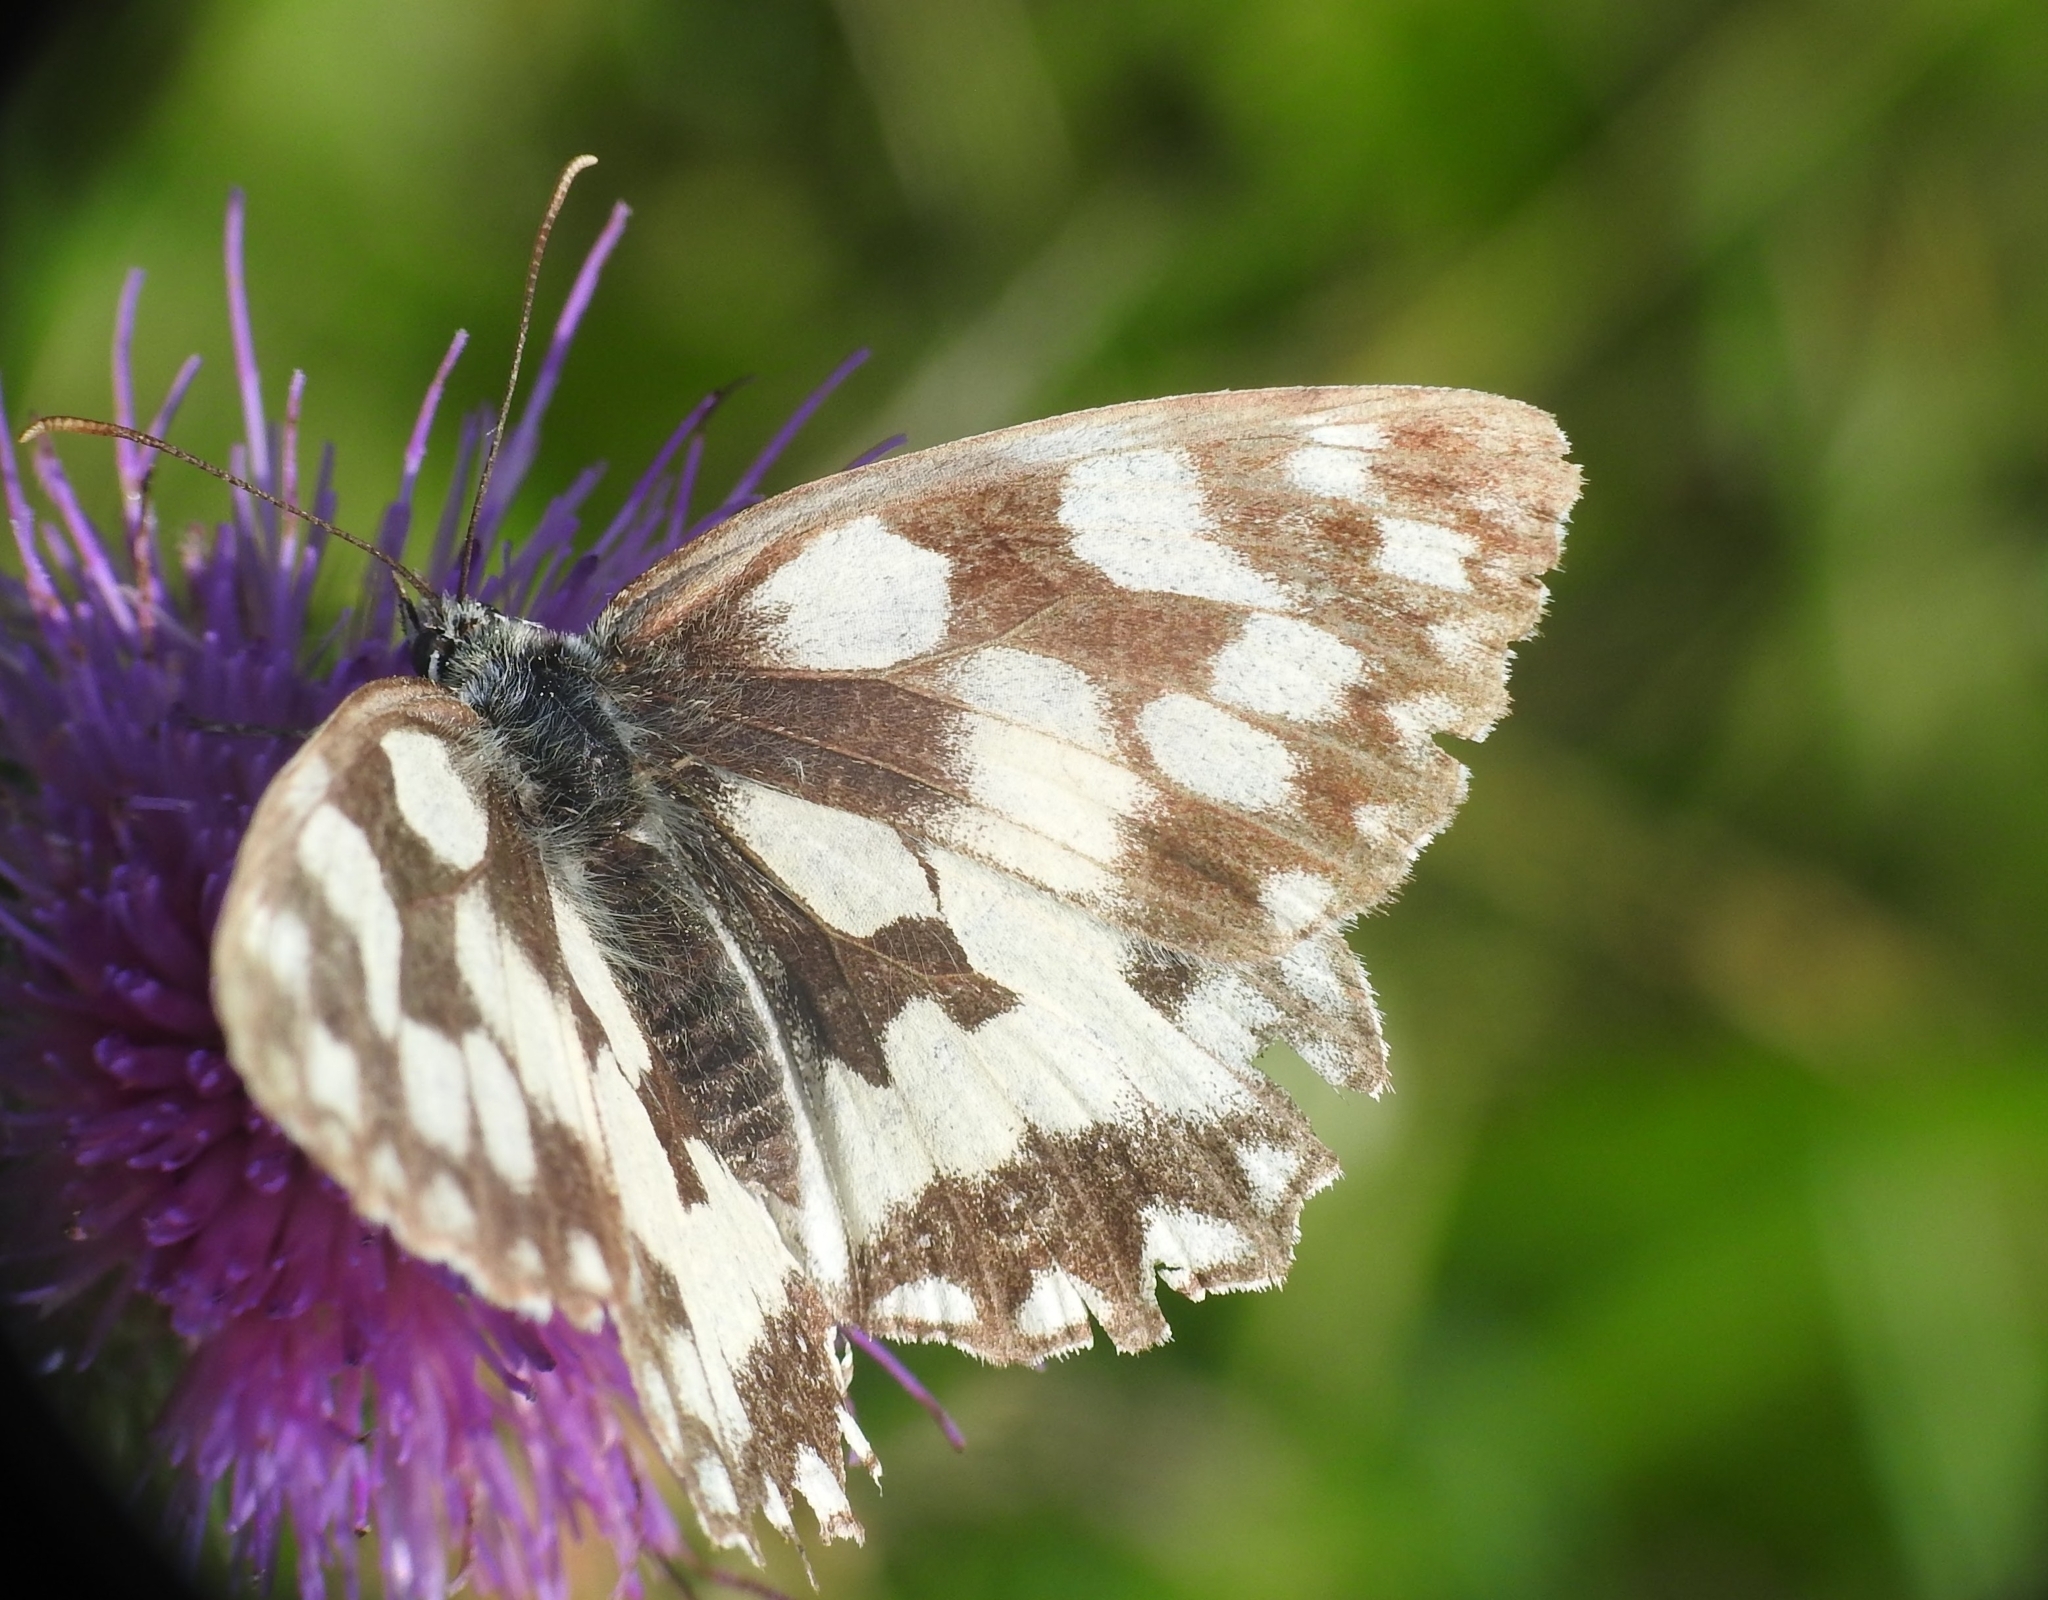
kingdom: Animalia
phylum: Arthropoda
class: Insecta
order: Lepidoptera
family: Nymphalidae
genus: Melanargia
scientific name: Melanargia galathea
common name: Marbled white
